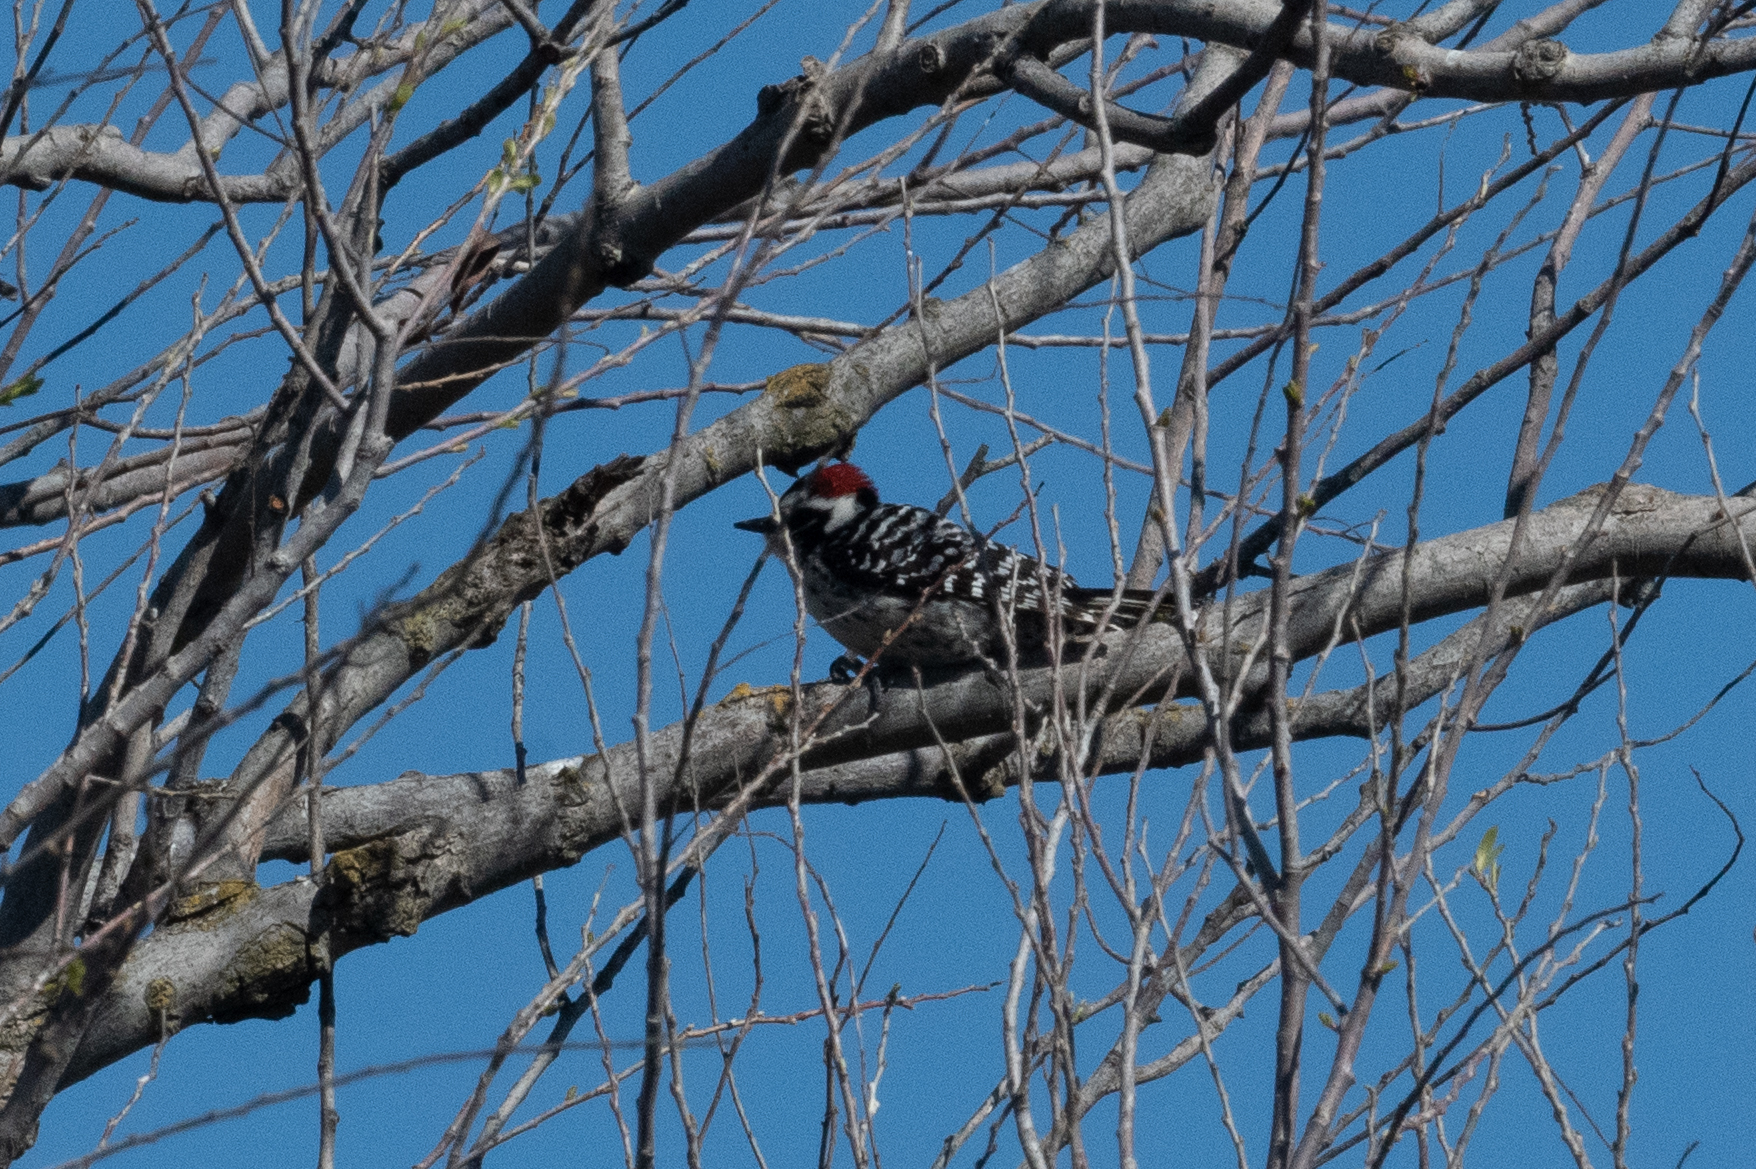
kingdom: Animalia
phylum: Chordata
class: Aves
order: Piciformes
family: Picidae
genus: Dryobates
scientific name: Dryobates nuttallii
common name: Nuttall's woodpecker
